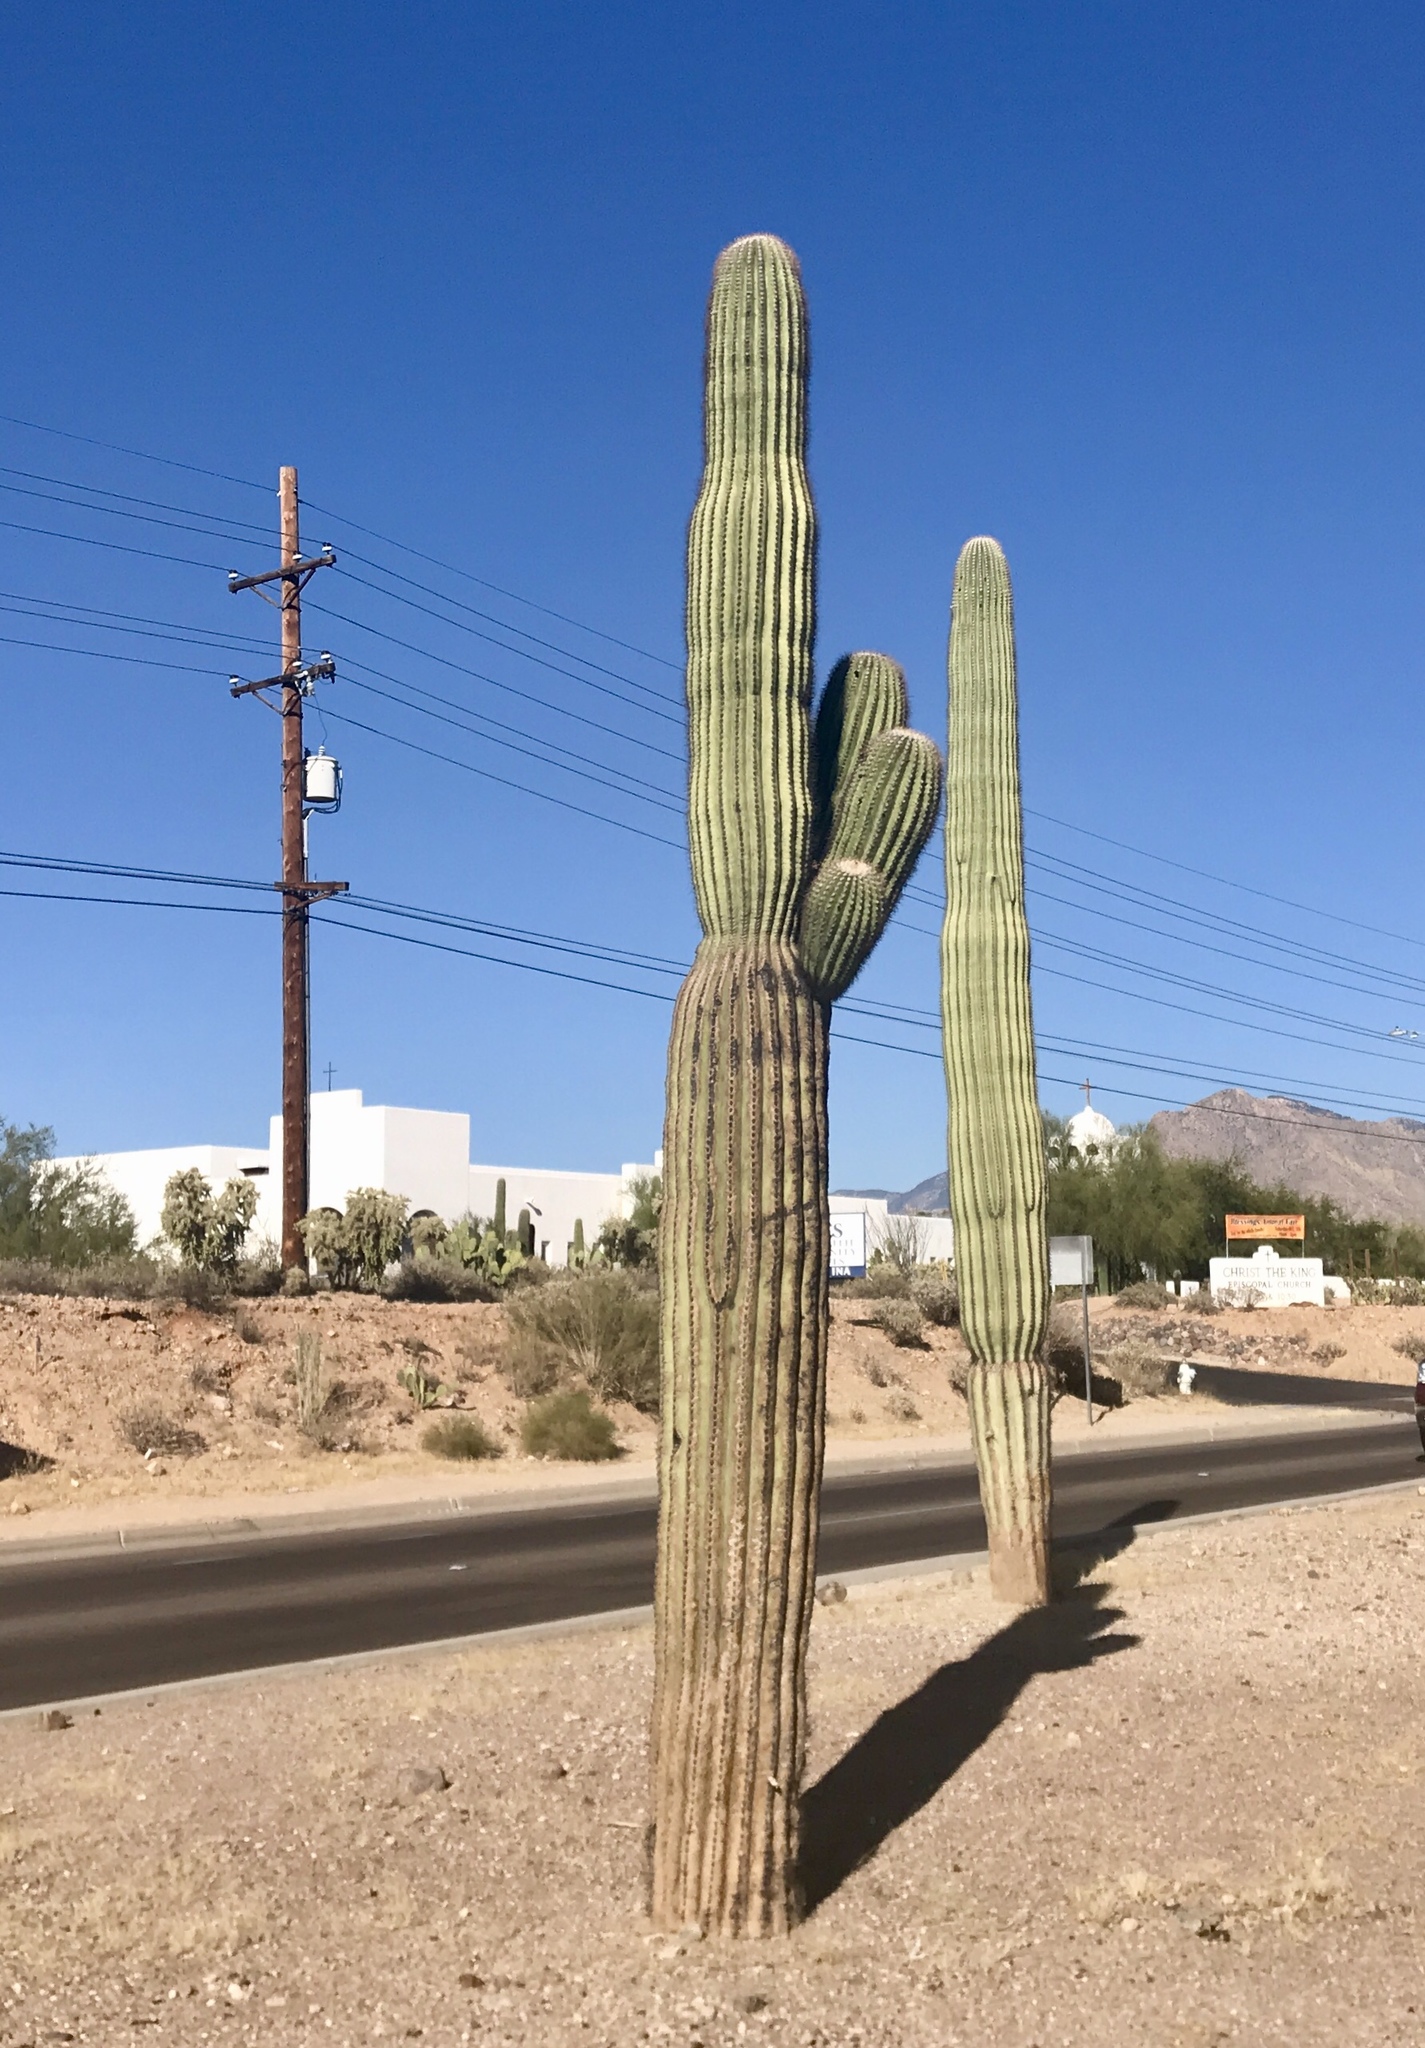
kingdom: Plantae
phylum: Tracheophyta
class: Magnoliopsida
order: Caryophyllales
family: Cactaceae
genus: Carnegiea
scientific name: Carnegiea gigantea
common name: Saguaro
